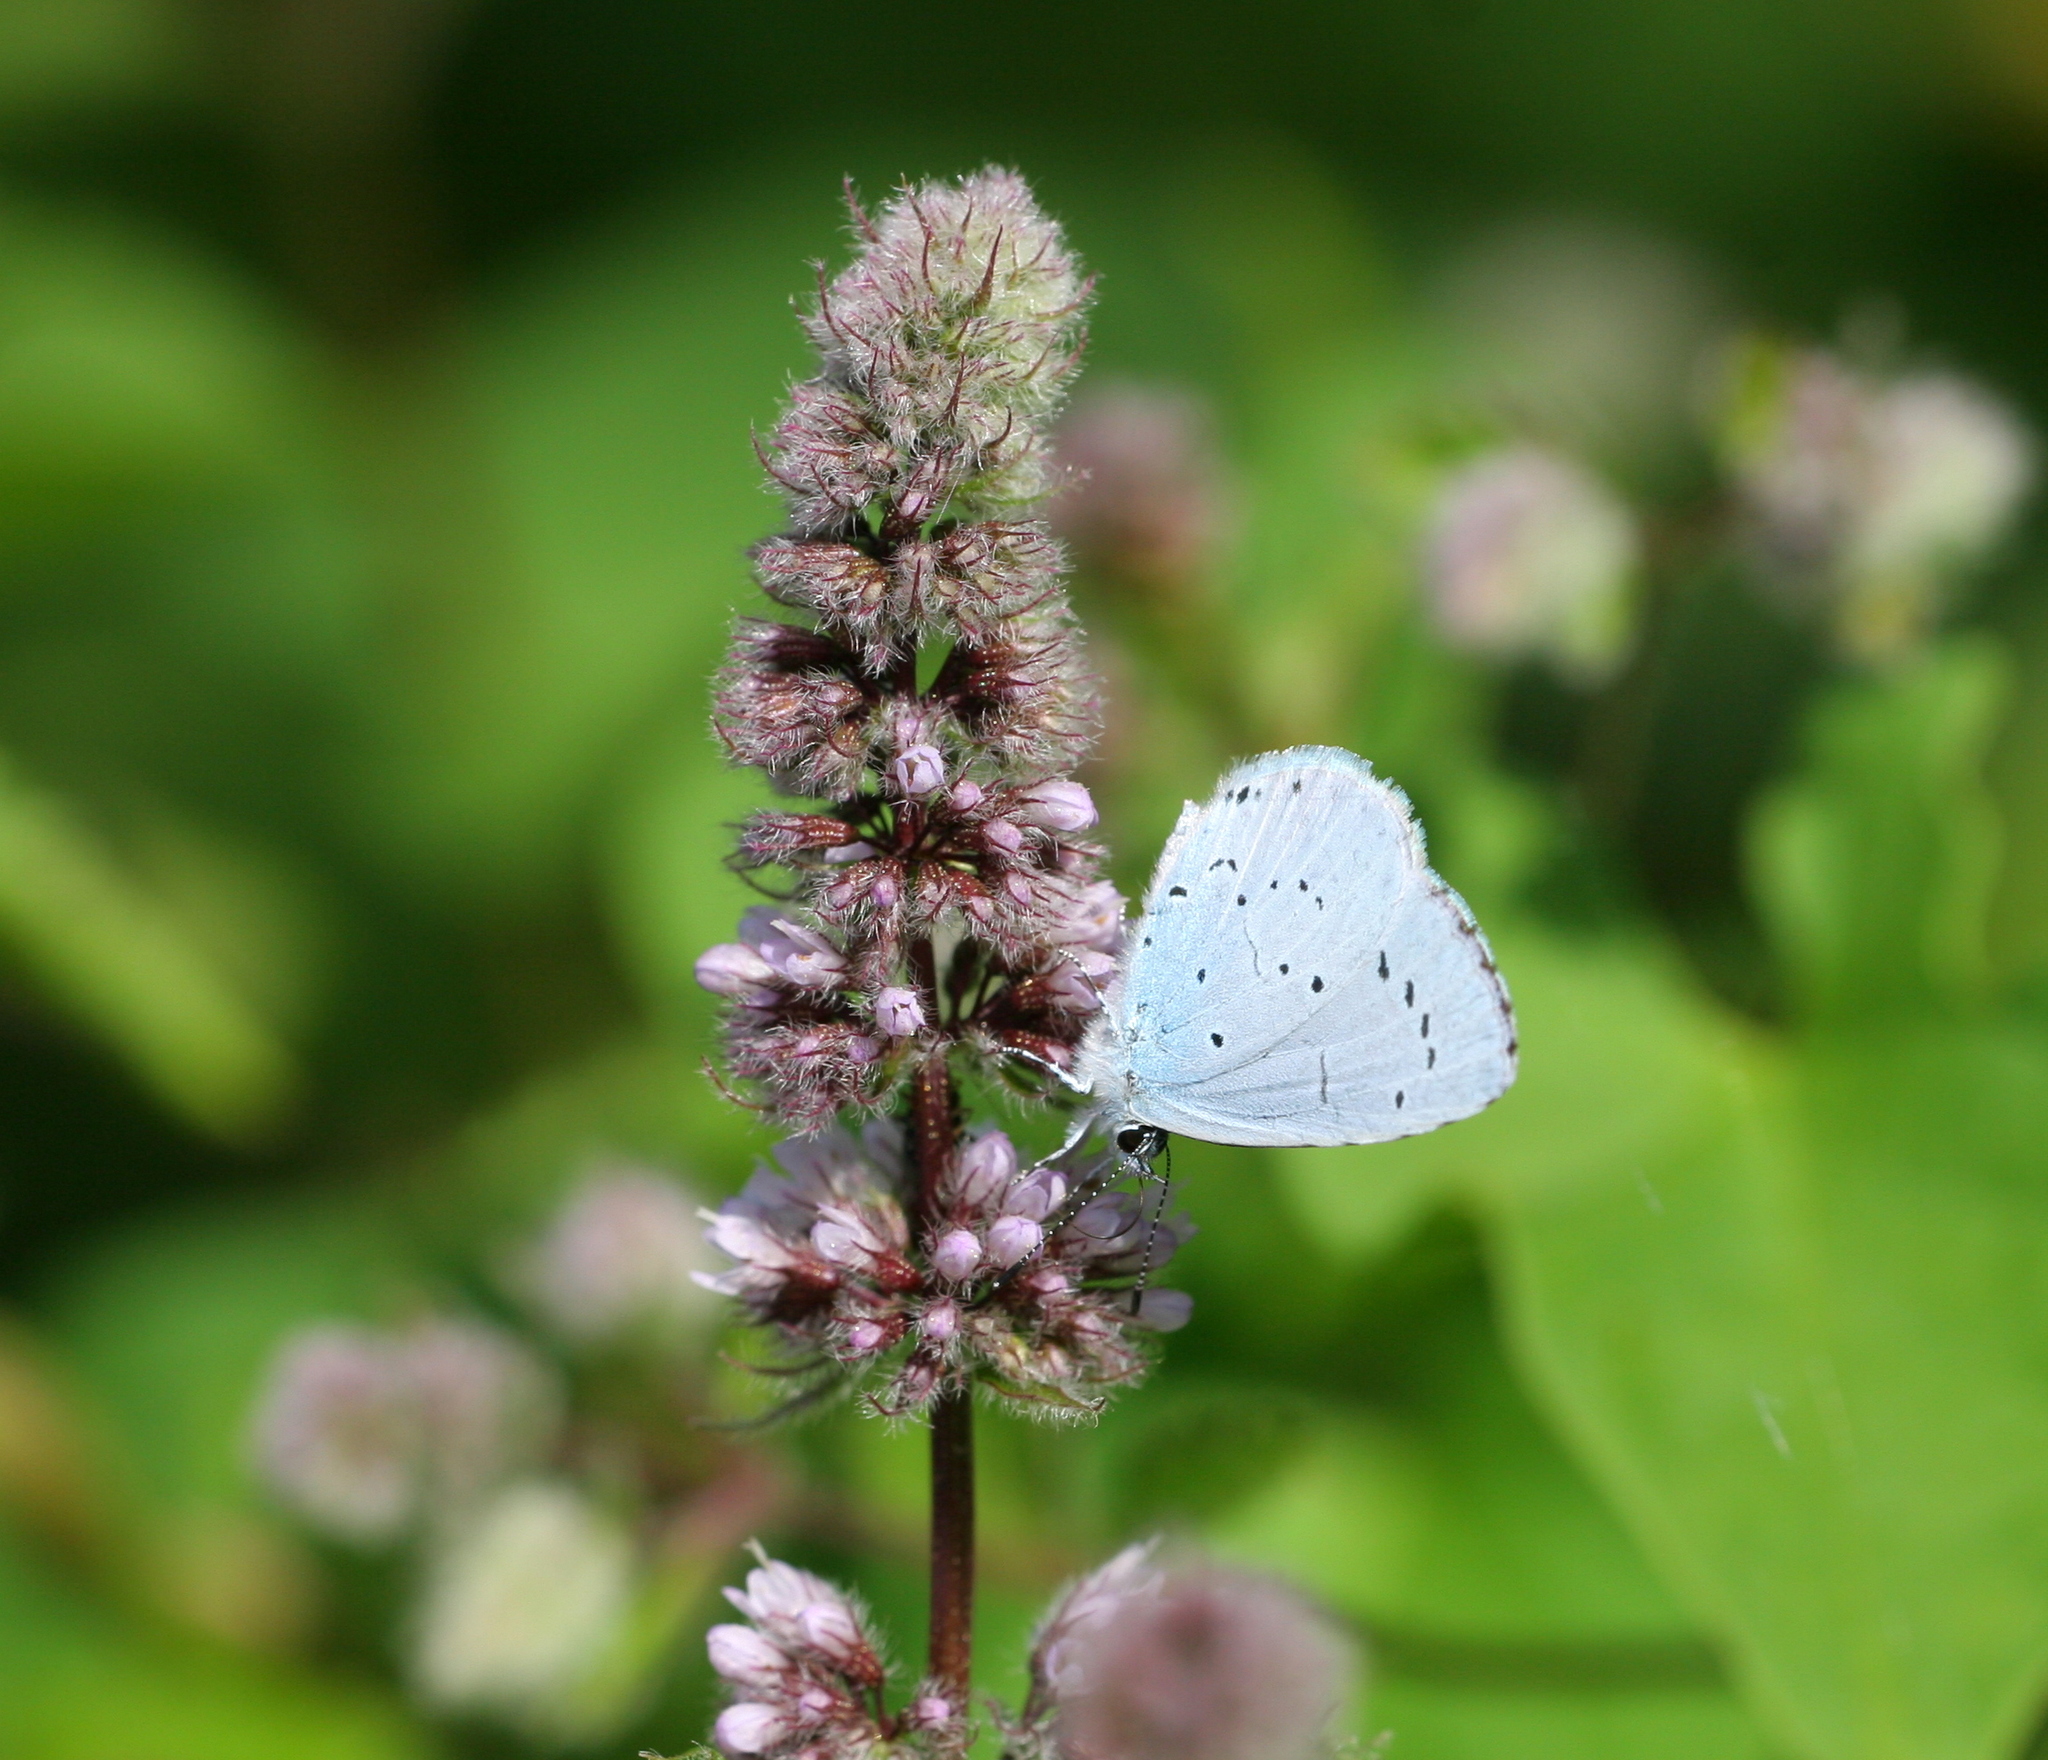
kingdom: Animalia
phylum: Arthropoda
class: Insecta
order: Lepidoptera
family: Lycaenidae
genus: Celastrina
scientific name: Celastrina argiolus
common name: Holly blue
